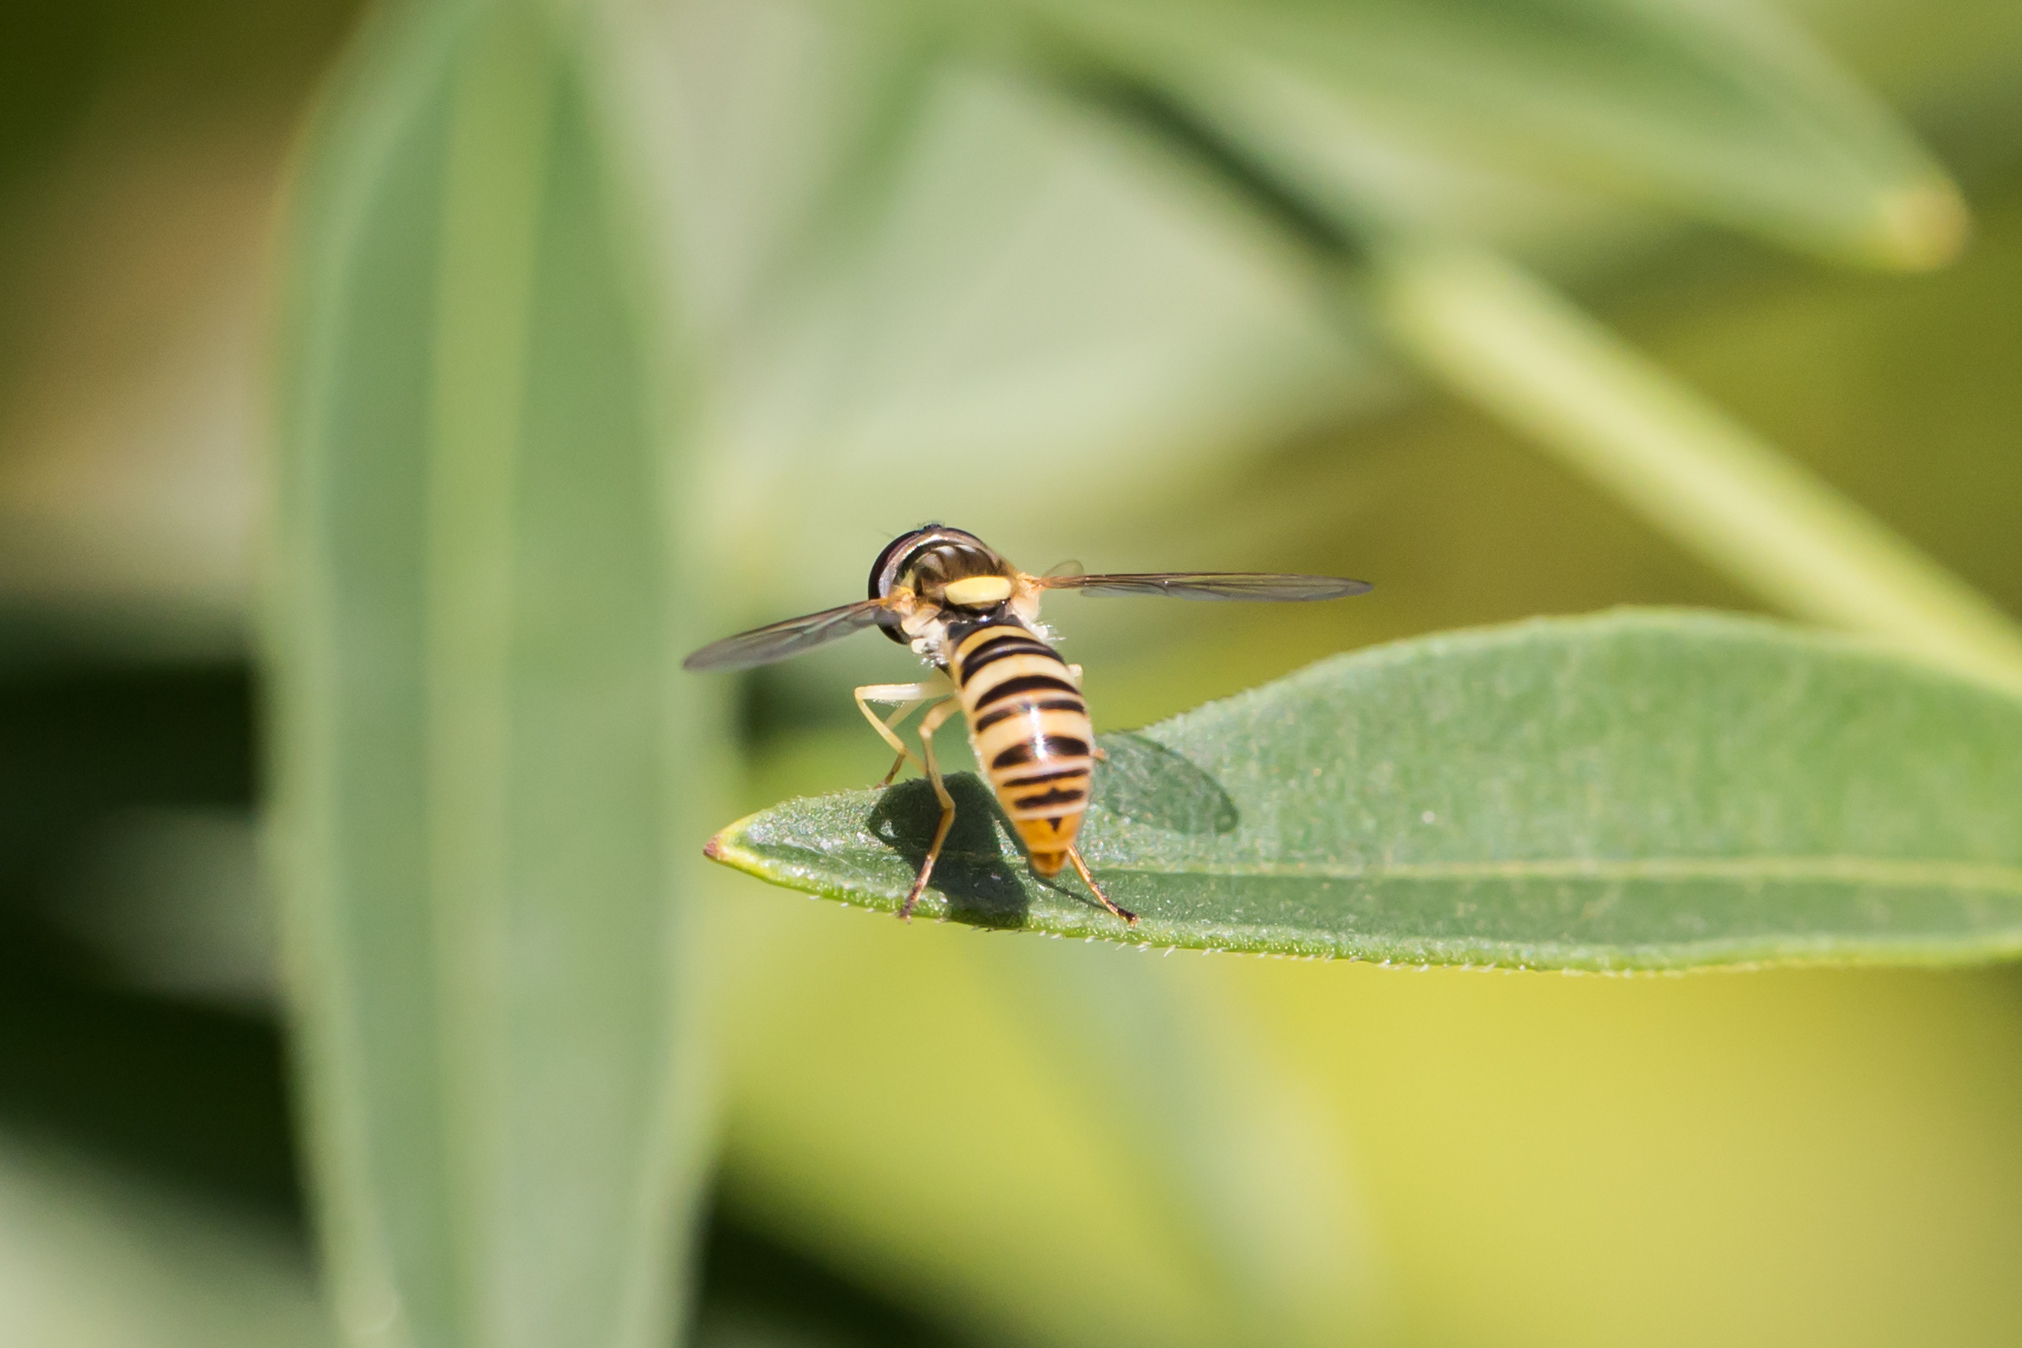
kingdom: Animalia
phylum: Arthropoda
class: Insecta
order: Diptera
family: Syrphidae
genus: Sphaerophoria
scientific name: Sphaerophoria contigua
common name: Tufted globetail
